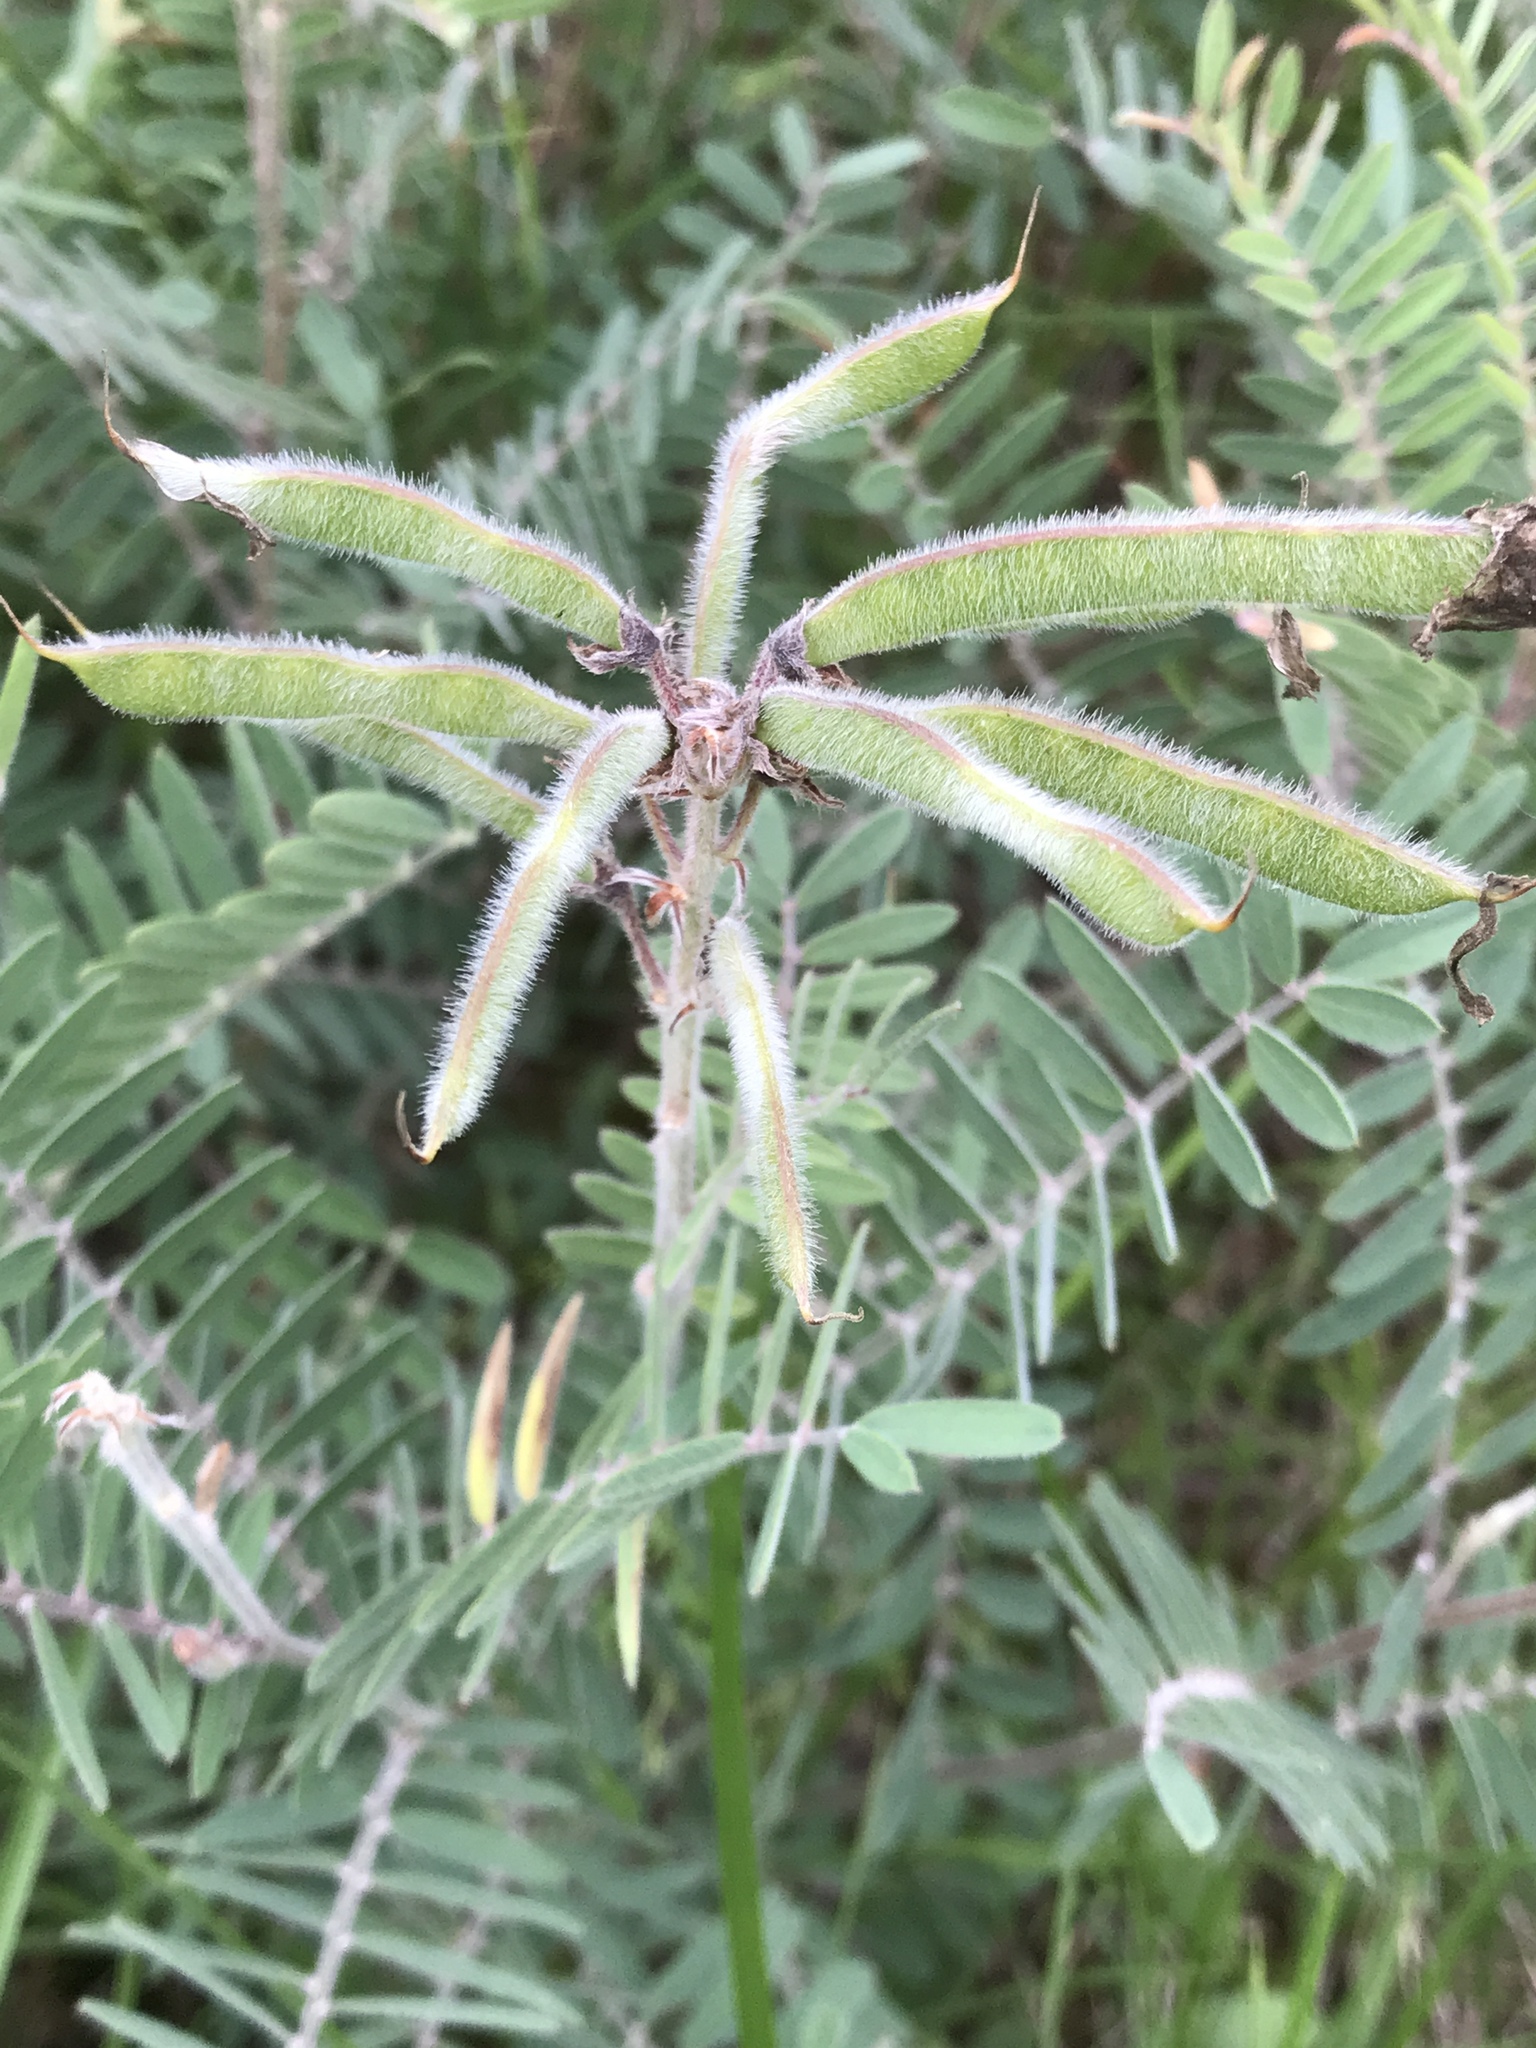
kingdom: Plantae
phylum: Tracheophyta
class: Magnoliopsida
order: Fabales
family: Fabaceae
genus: Tephrosia
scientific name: Tephrosia virginiana
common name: Rabbit-pea
